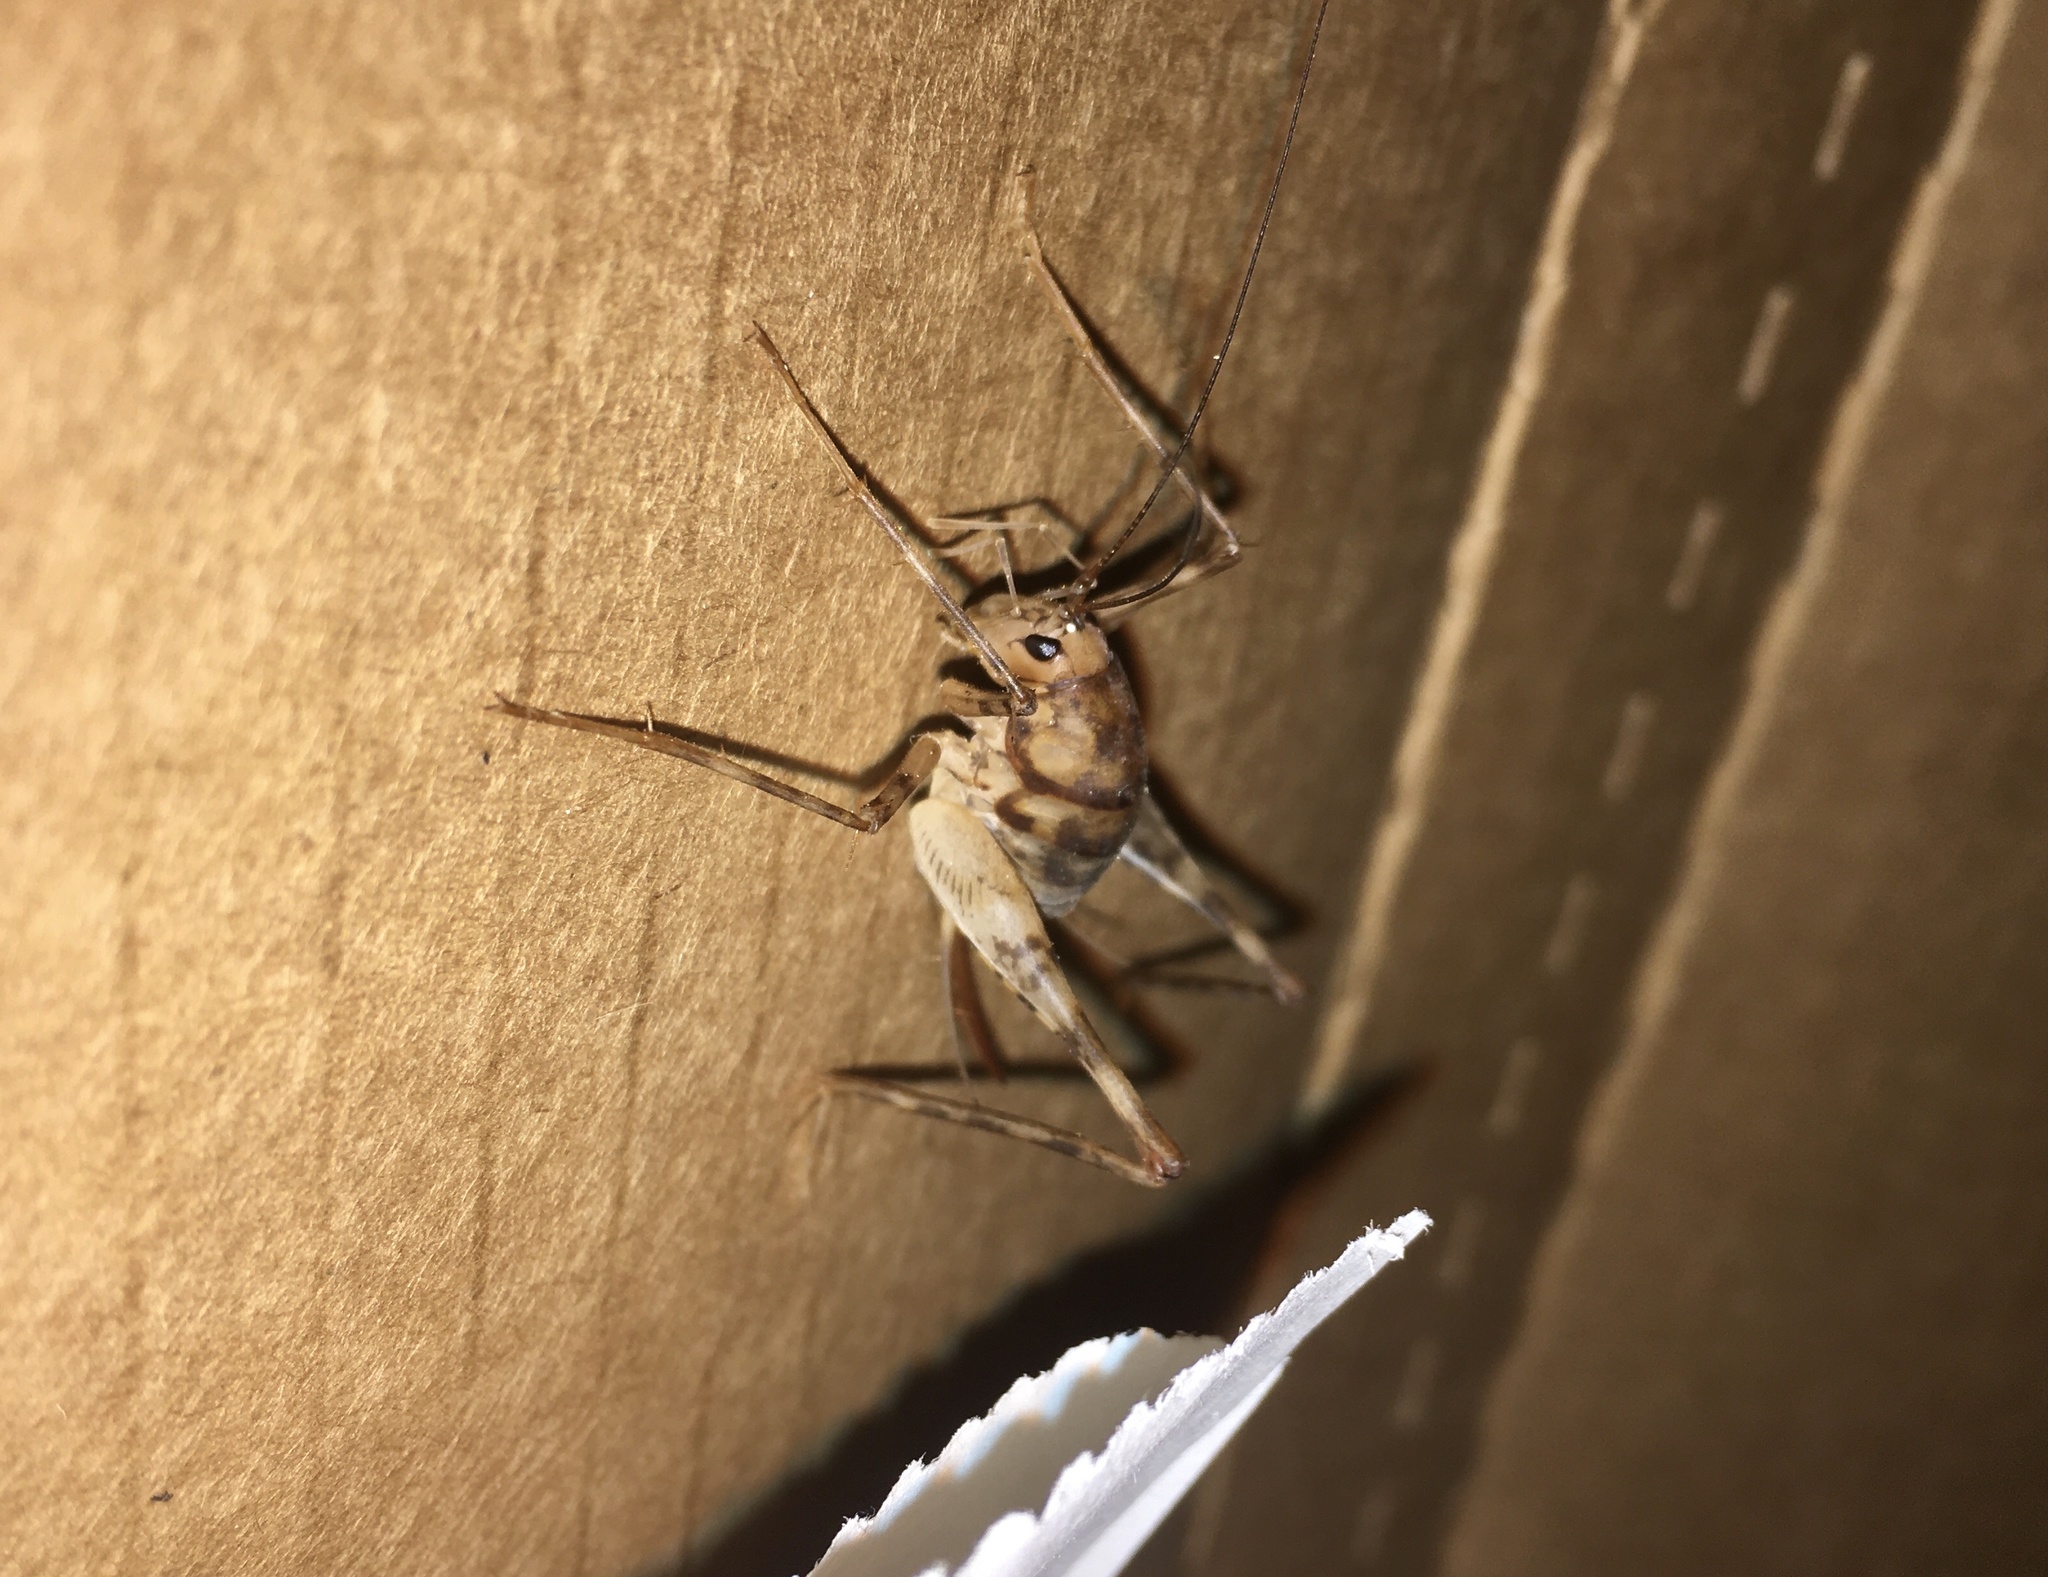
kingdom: Animalia
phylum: Arthropoda
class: Insecta
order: Orthoptera
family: Rhaphidophoridae
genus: Tachycines
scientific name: Tachycines asynamorus
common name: Greenhouse camel cricket
